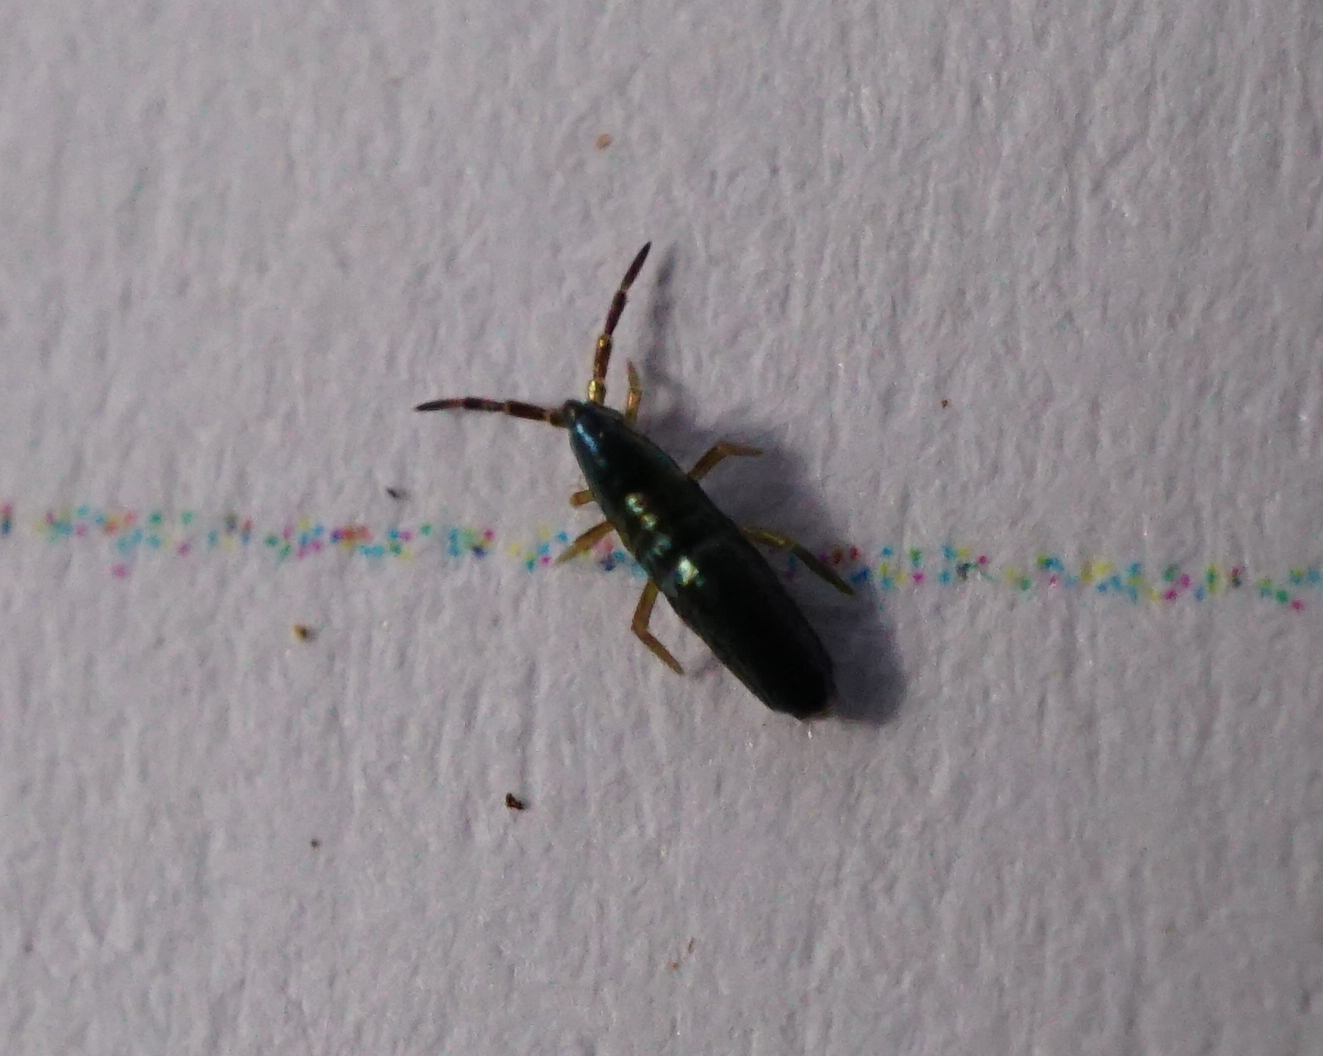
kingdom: Animalia
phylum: Arthropoda
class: Collembola
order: Entomobryomorpha
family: Entomobryidae
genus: Lepidocyrtus
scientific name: Lepidocyrtus paradoxus
